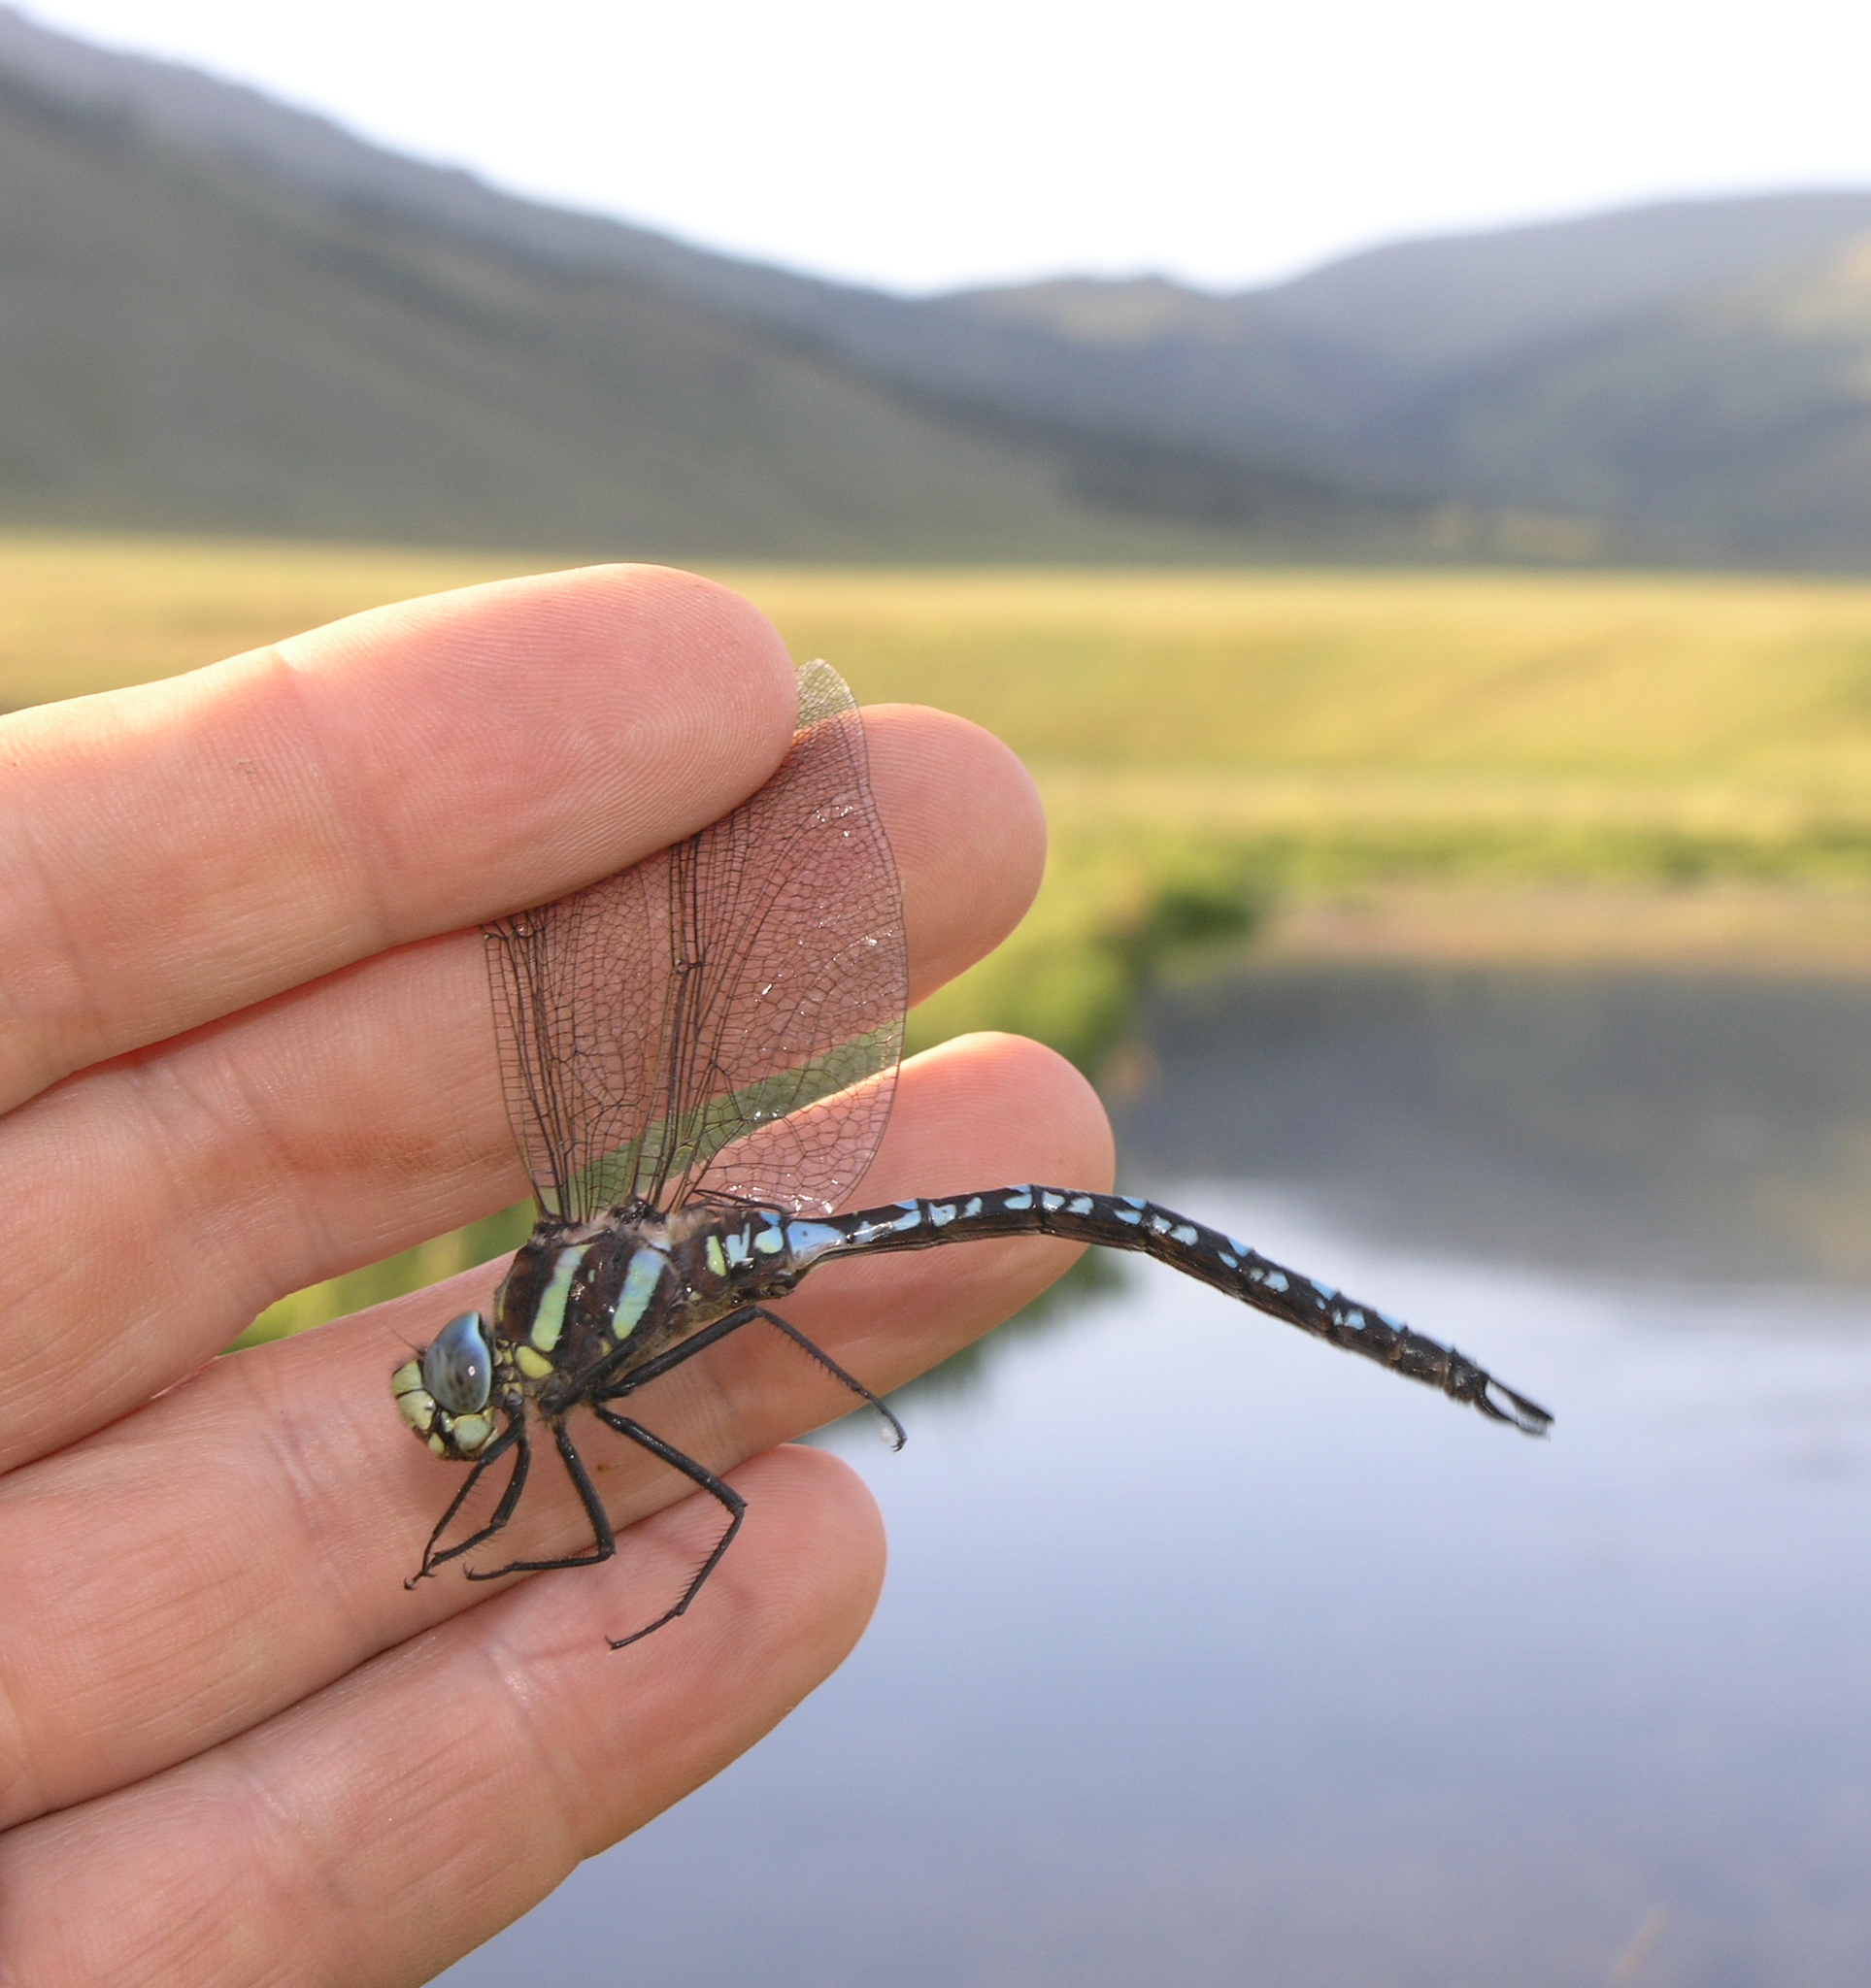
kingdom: Animalia
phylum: Arthropoda
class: Insecta
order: Odonata
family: Aeshnidae
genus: Aeshna
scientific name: Aeshna juncea
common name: Moorland hawker
